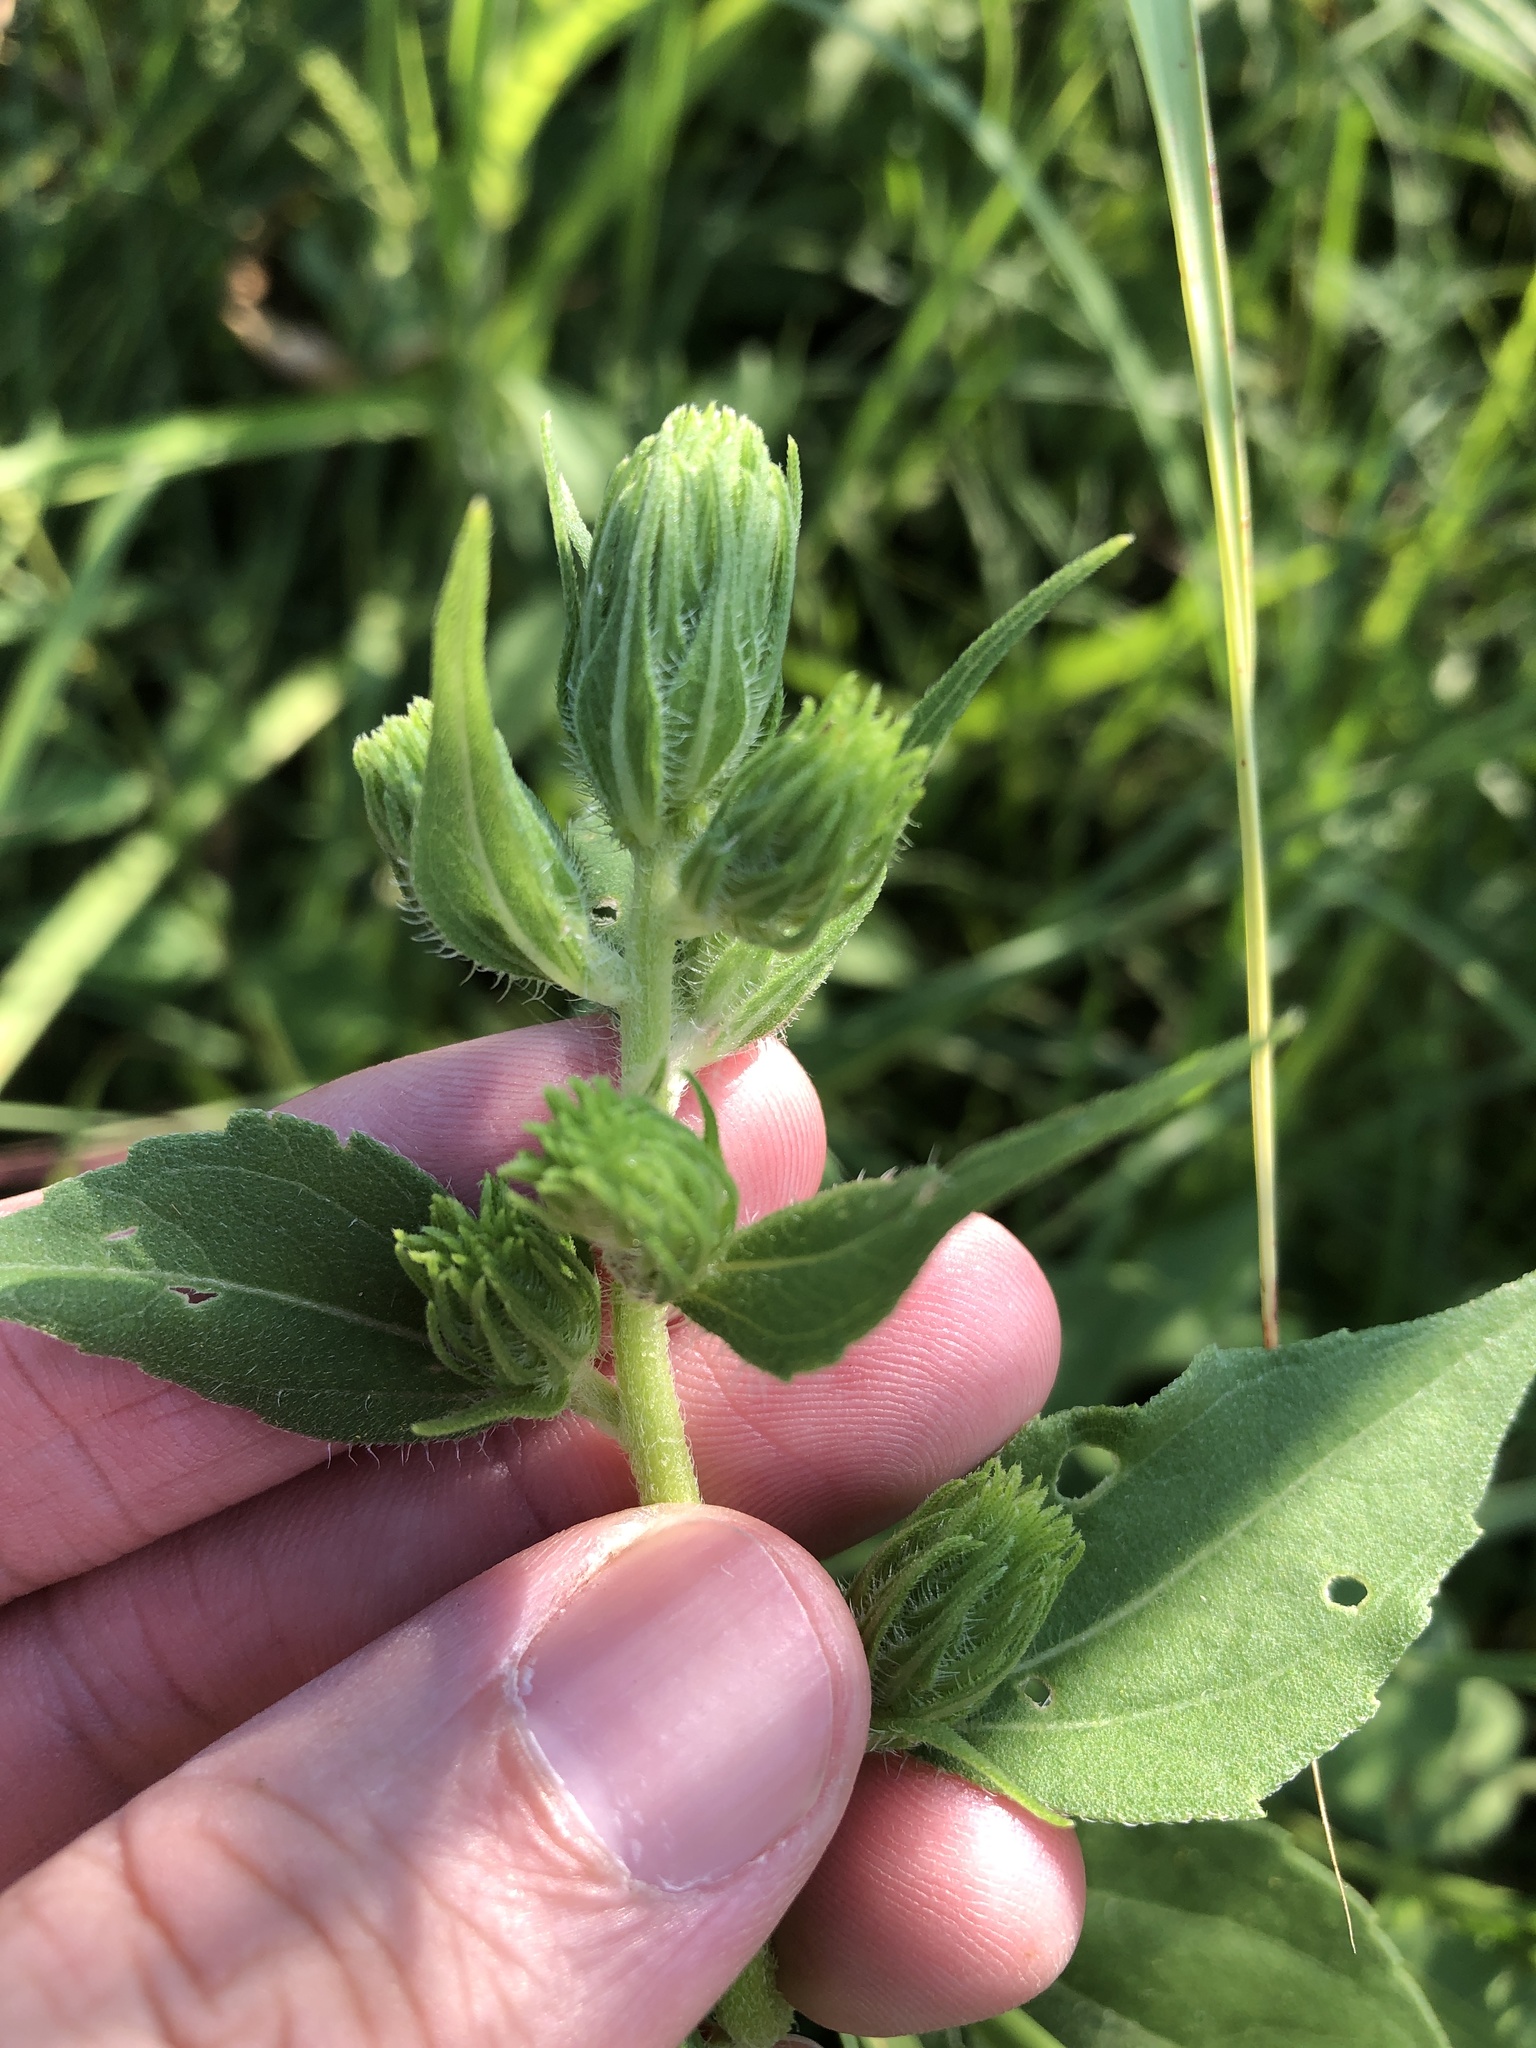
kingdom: Plantae
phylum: Tracheophyta
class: Magnoliopsida
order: Asterales
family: Asteraceae
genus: Iva
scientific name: Iva annua
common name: Marsh-elder
